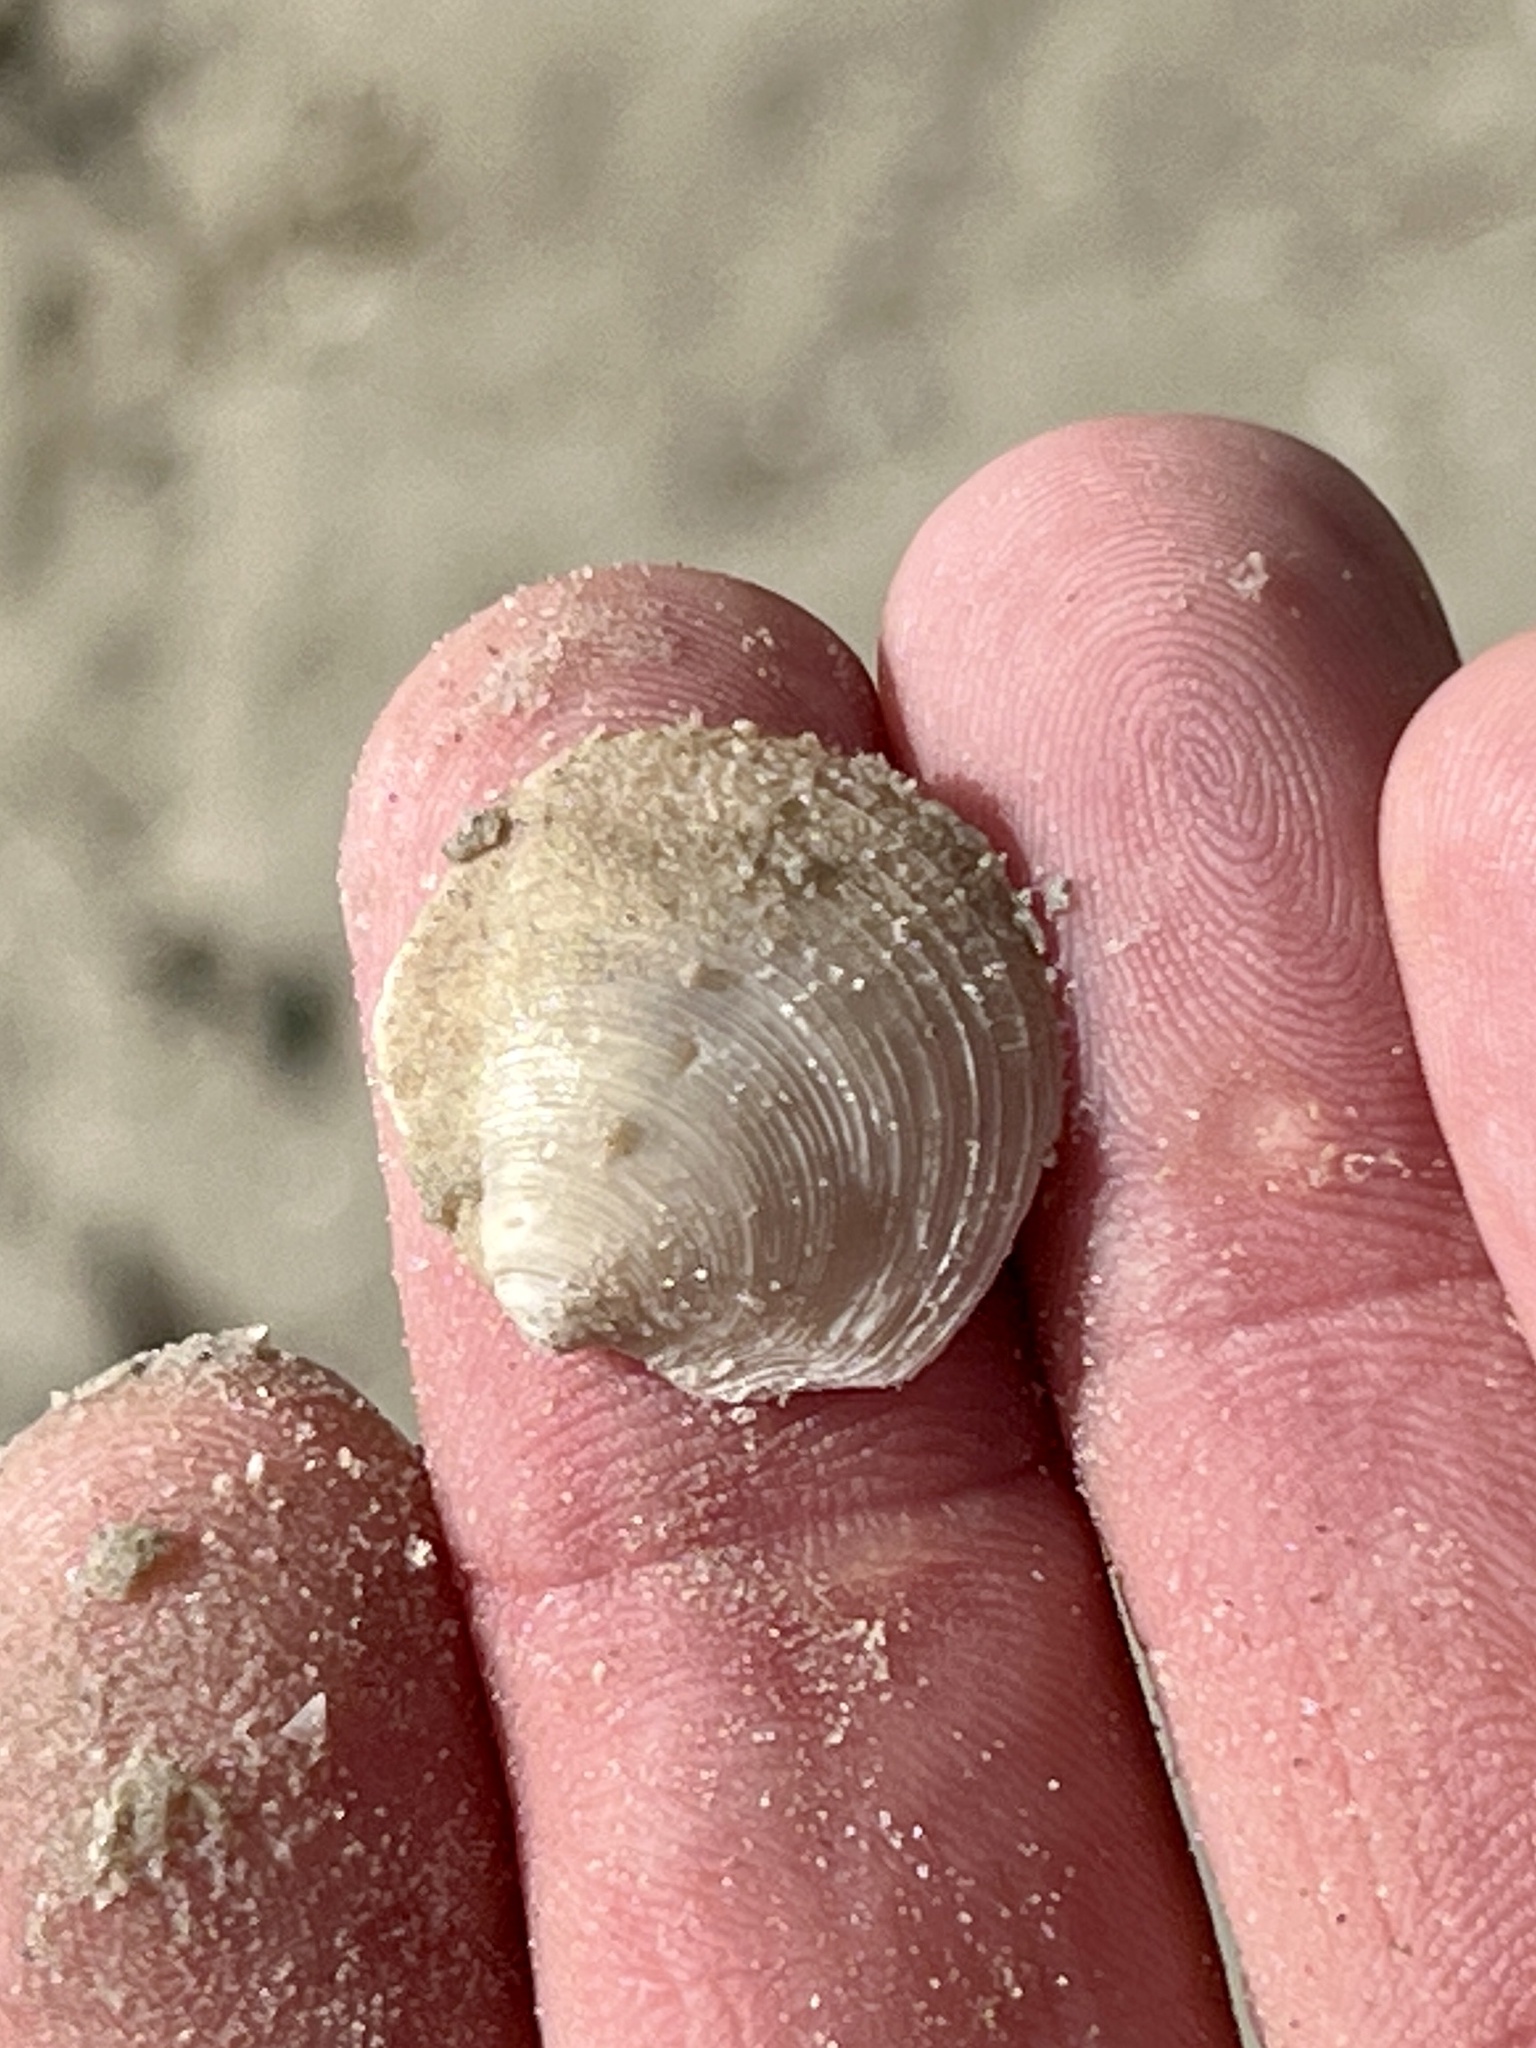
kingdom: Animalia
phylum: Mollusca
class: Bivalvia
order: Lucinida
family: Lucinidae
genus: Phacoides
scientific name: Phacoides pectinatus
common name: Thick lucine
